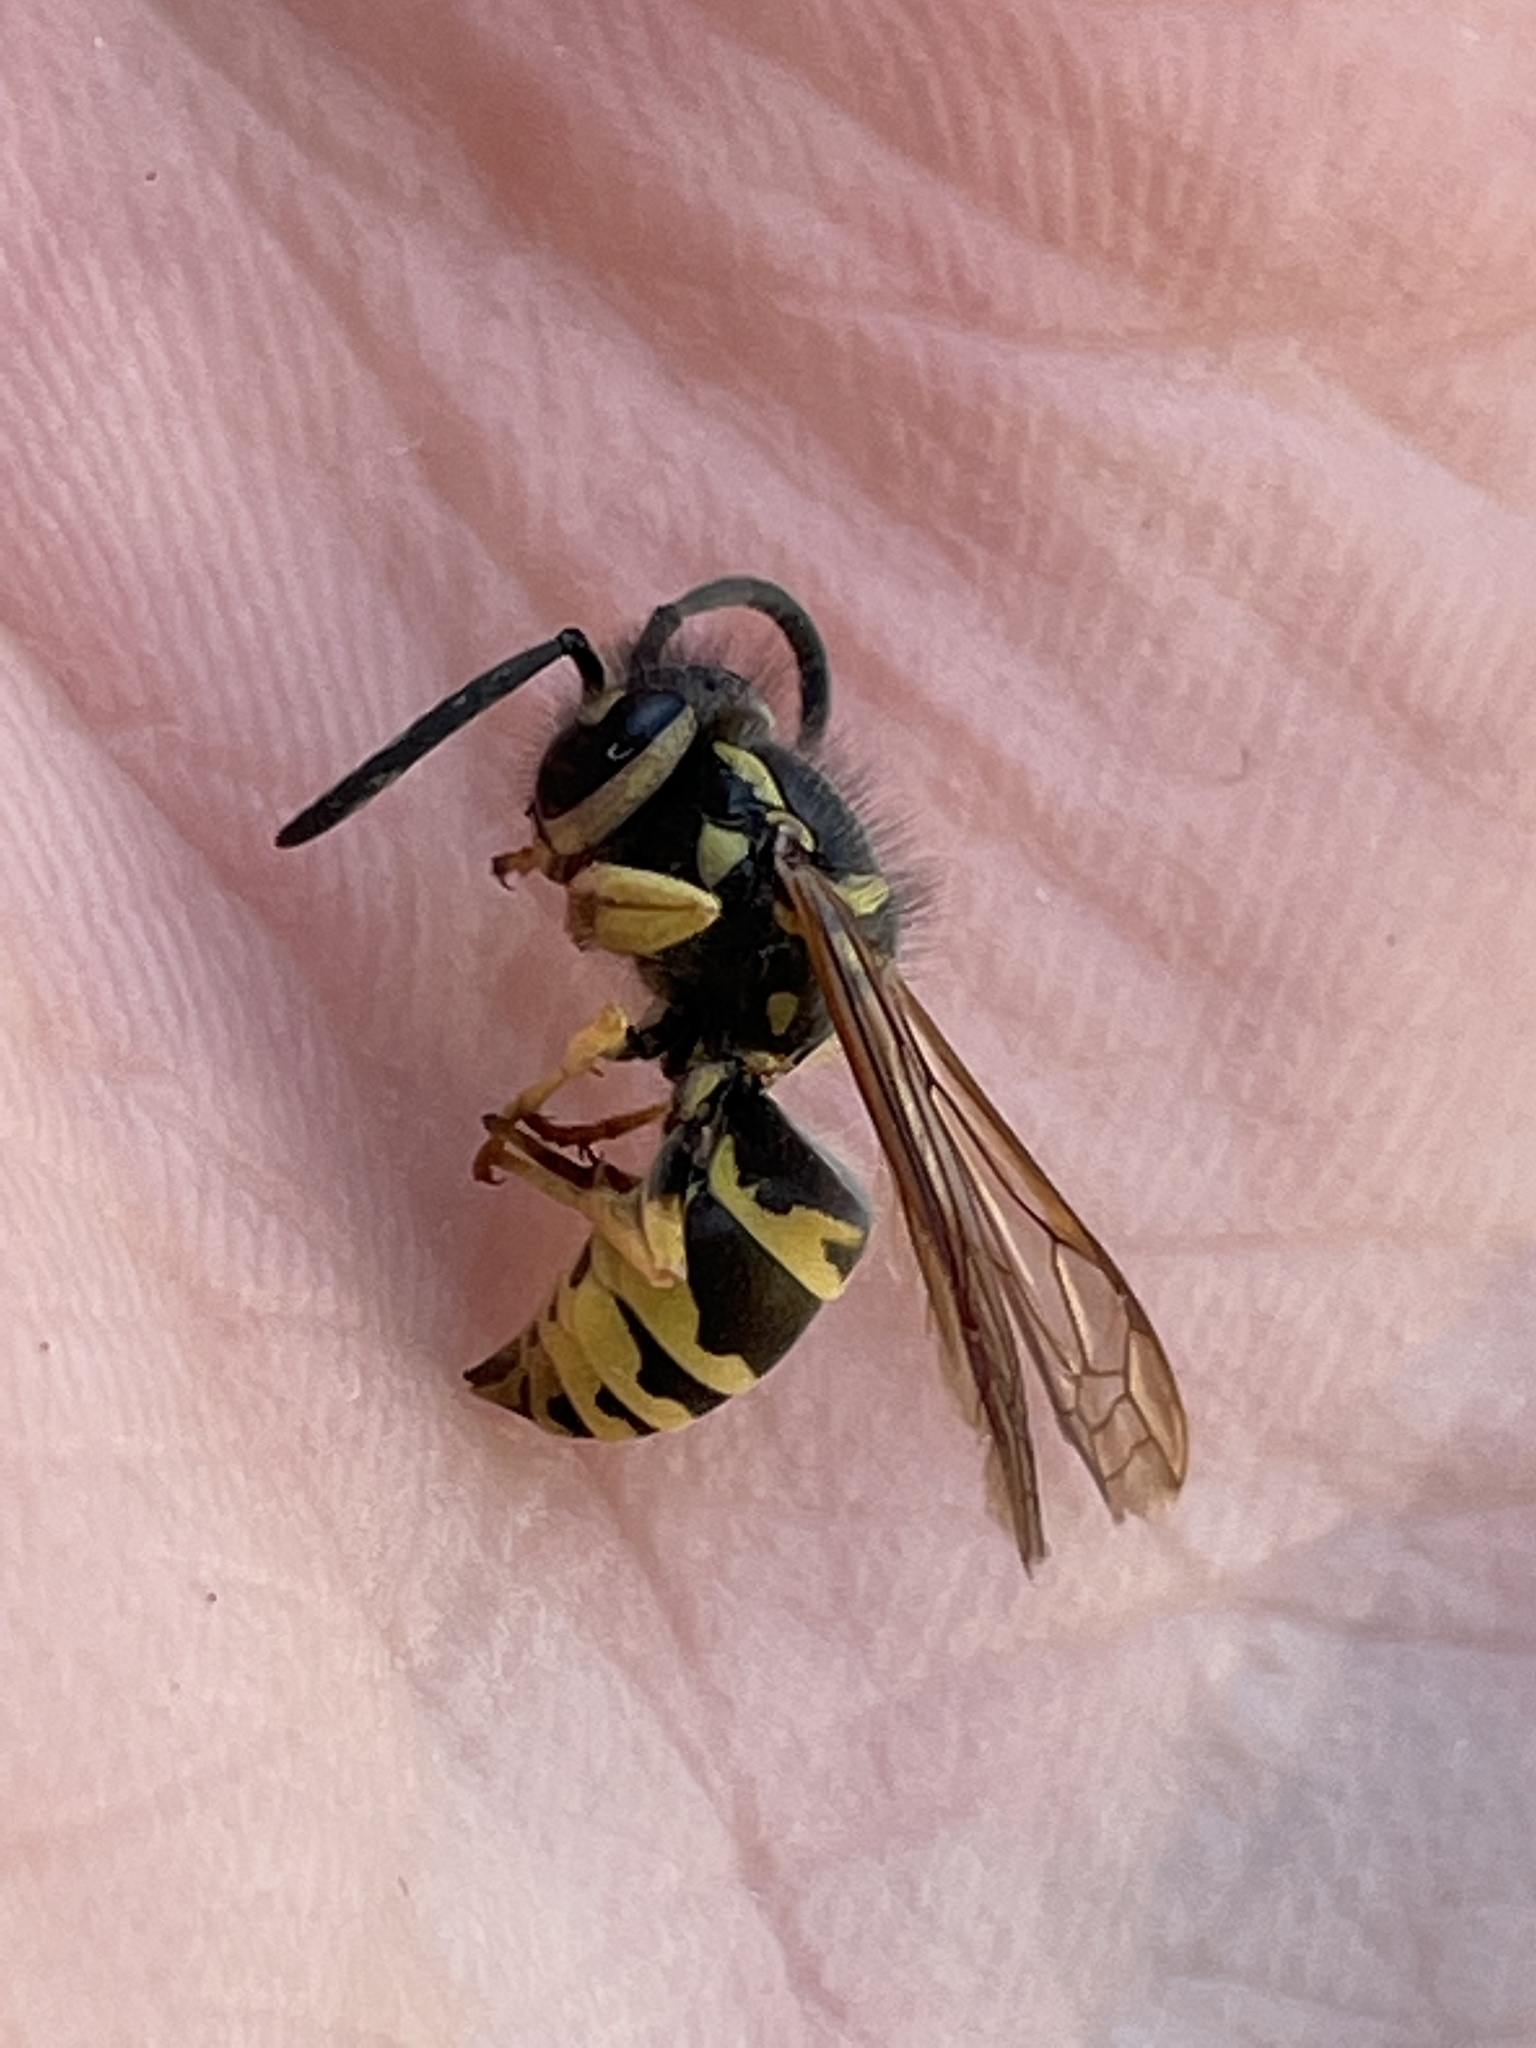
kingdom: Animalia
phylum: Arthropoda
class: Insecta
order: Hymenoptera
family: Vespidae
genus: Vespula
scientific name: Vespula maculifrons
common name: Eastern yellowjacket
